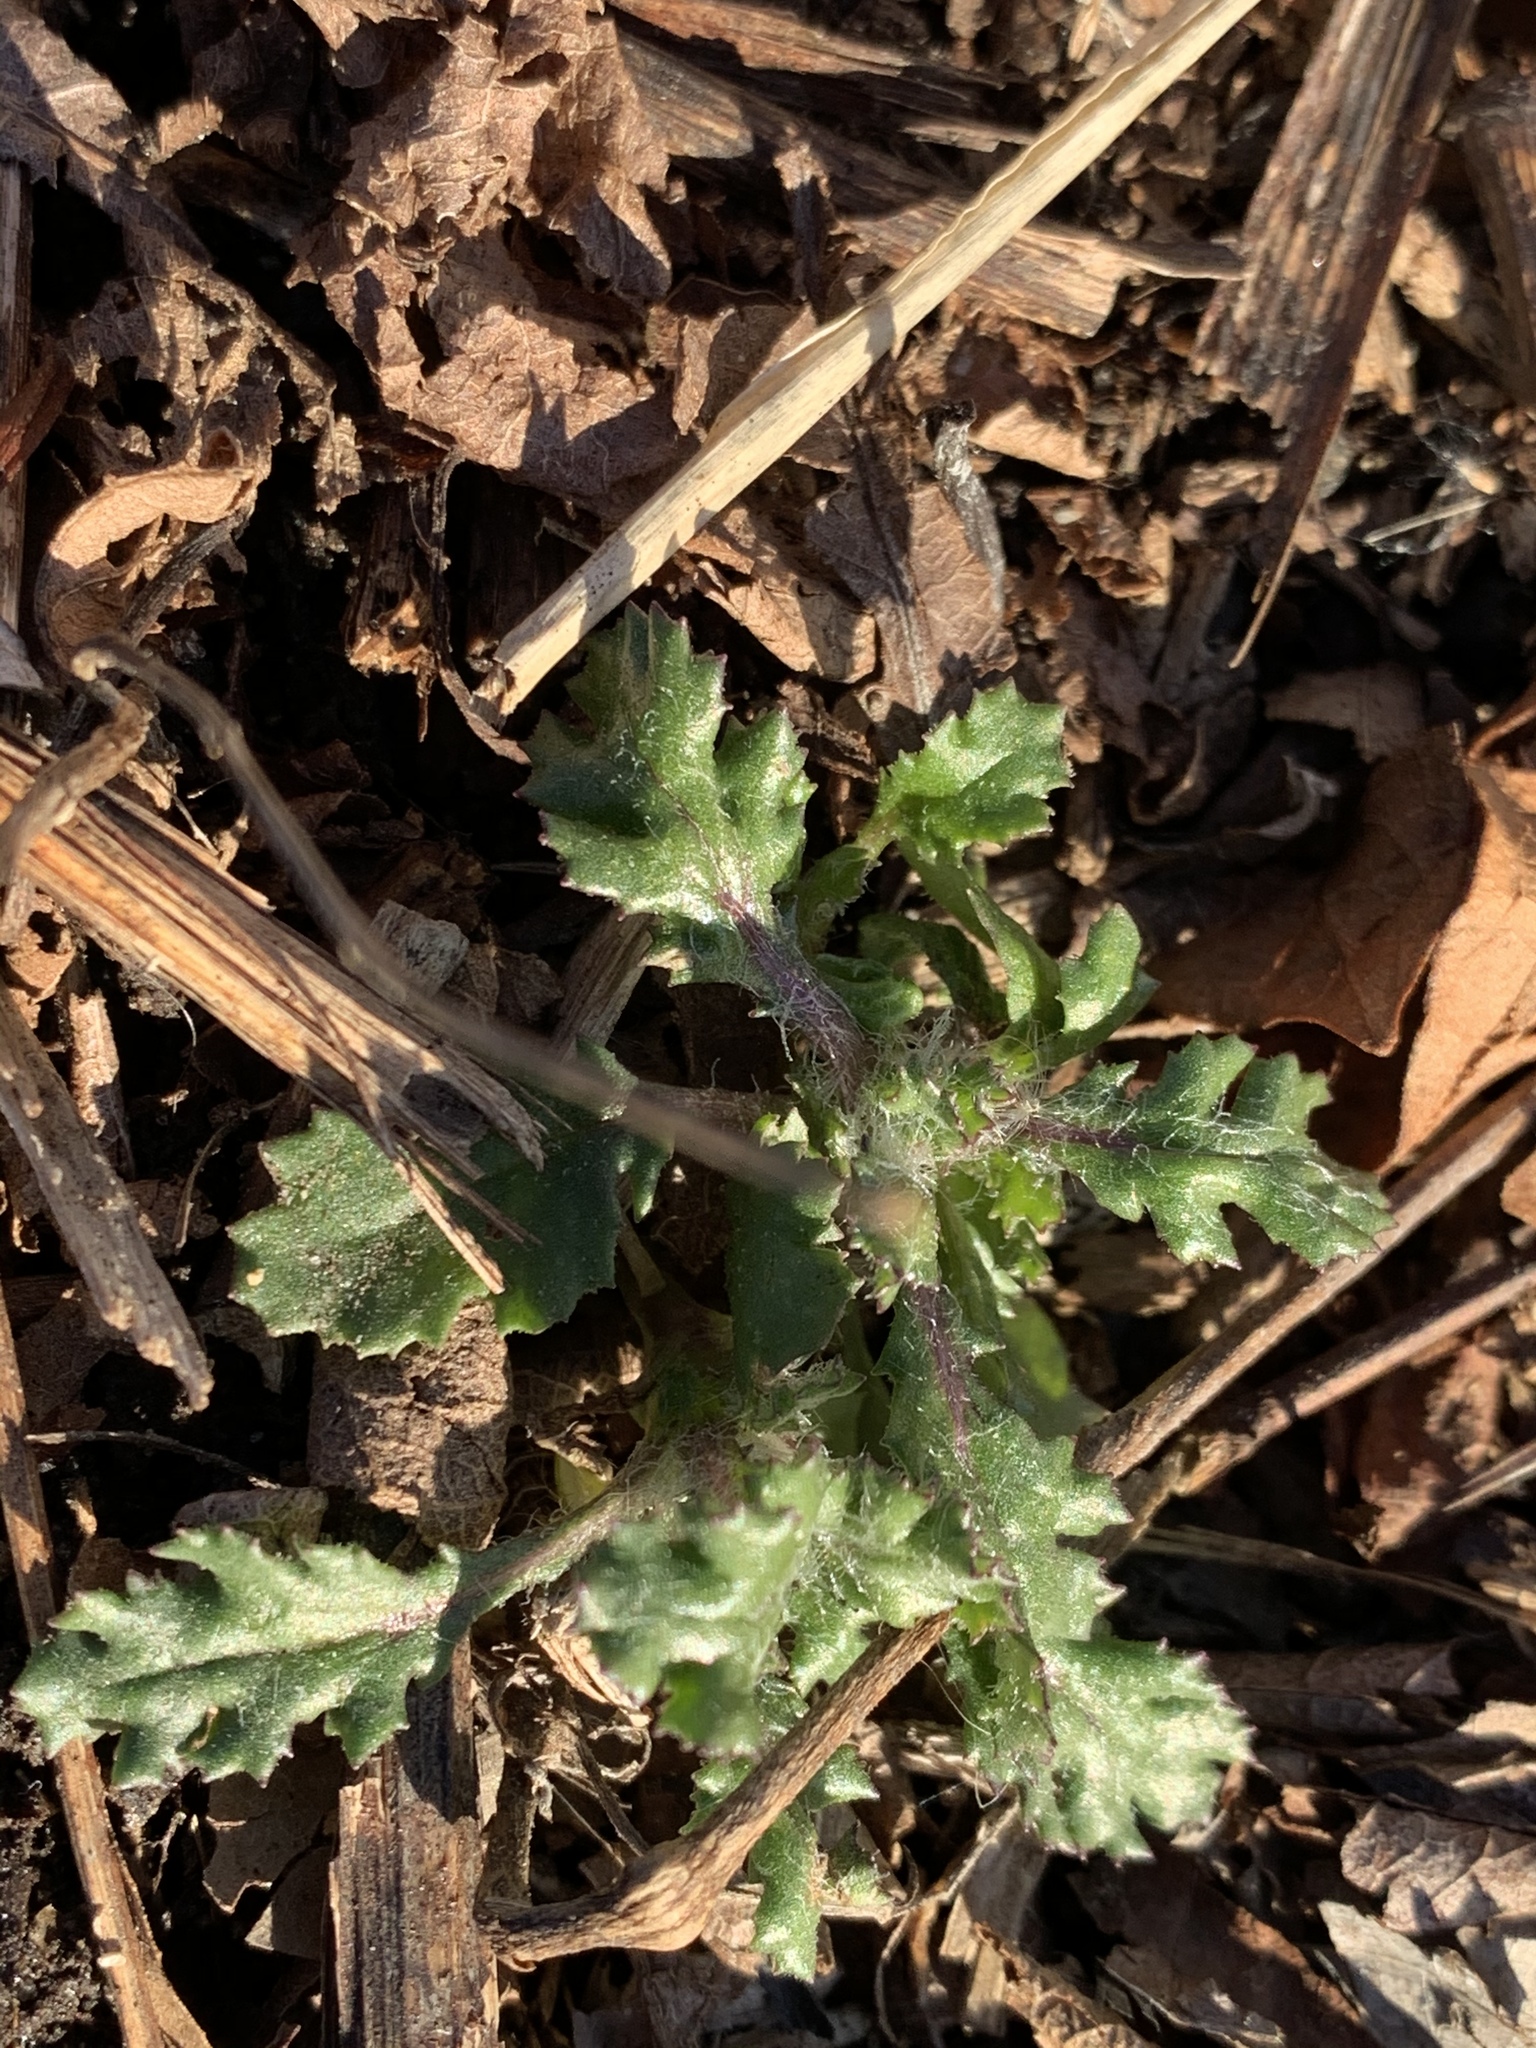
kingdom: Plantae
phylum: Tracheophyta
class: Magnoliopsida
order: Asterales
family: Asteraceae
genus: Senecio
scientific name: Senecio vulgaris
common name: Old-man-in-the-spring
